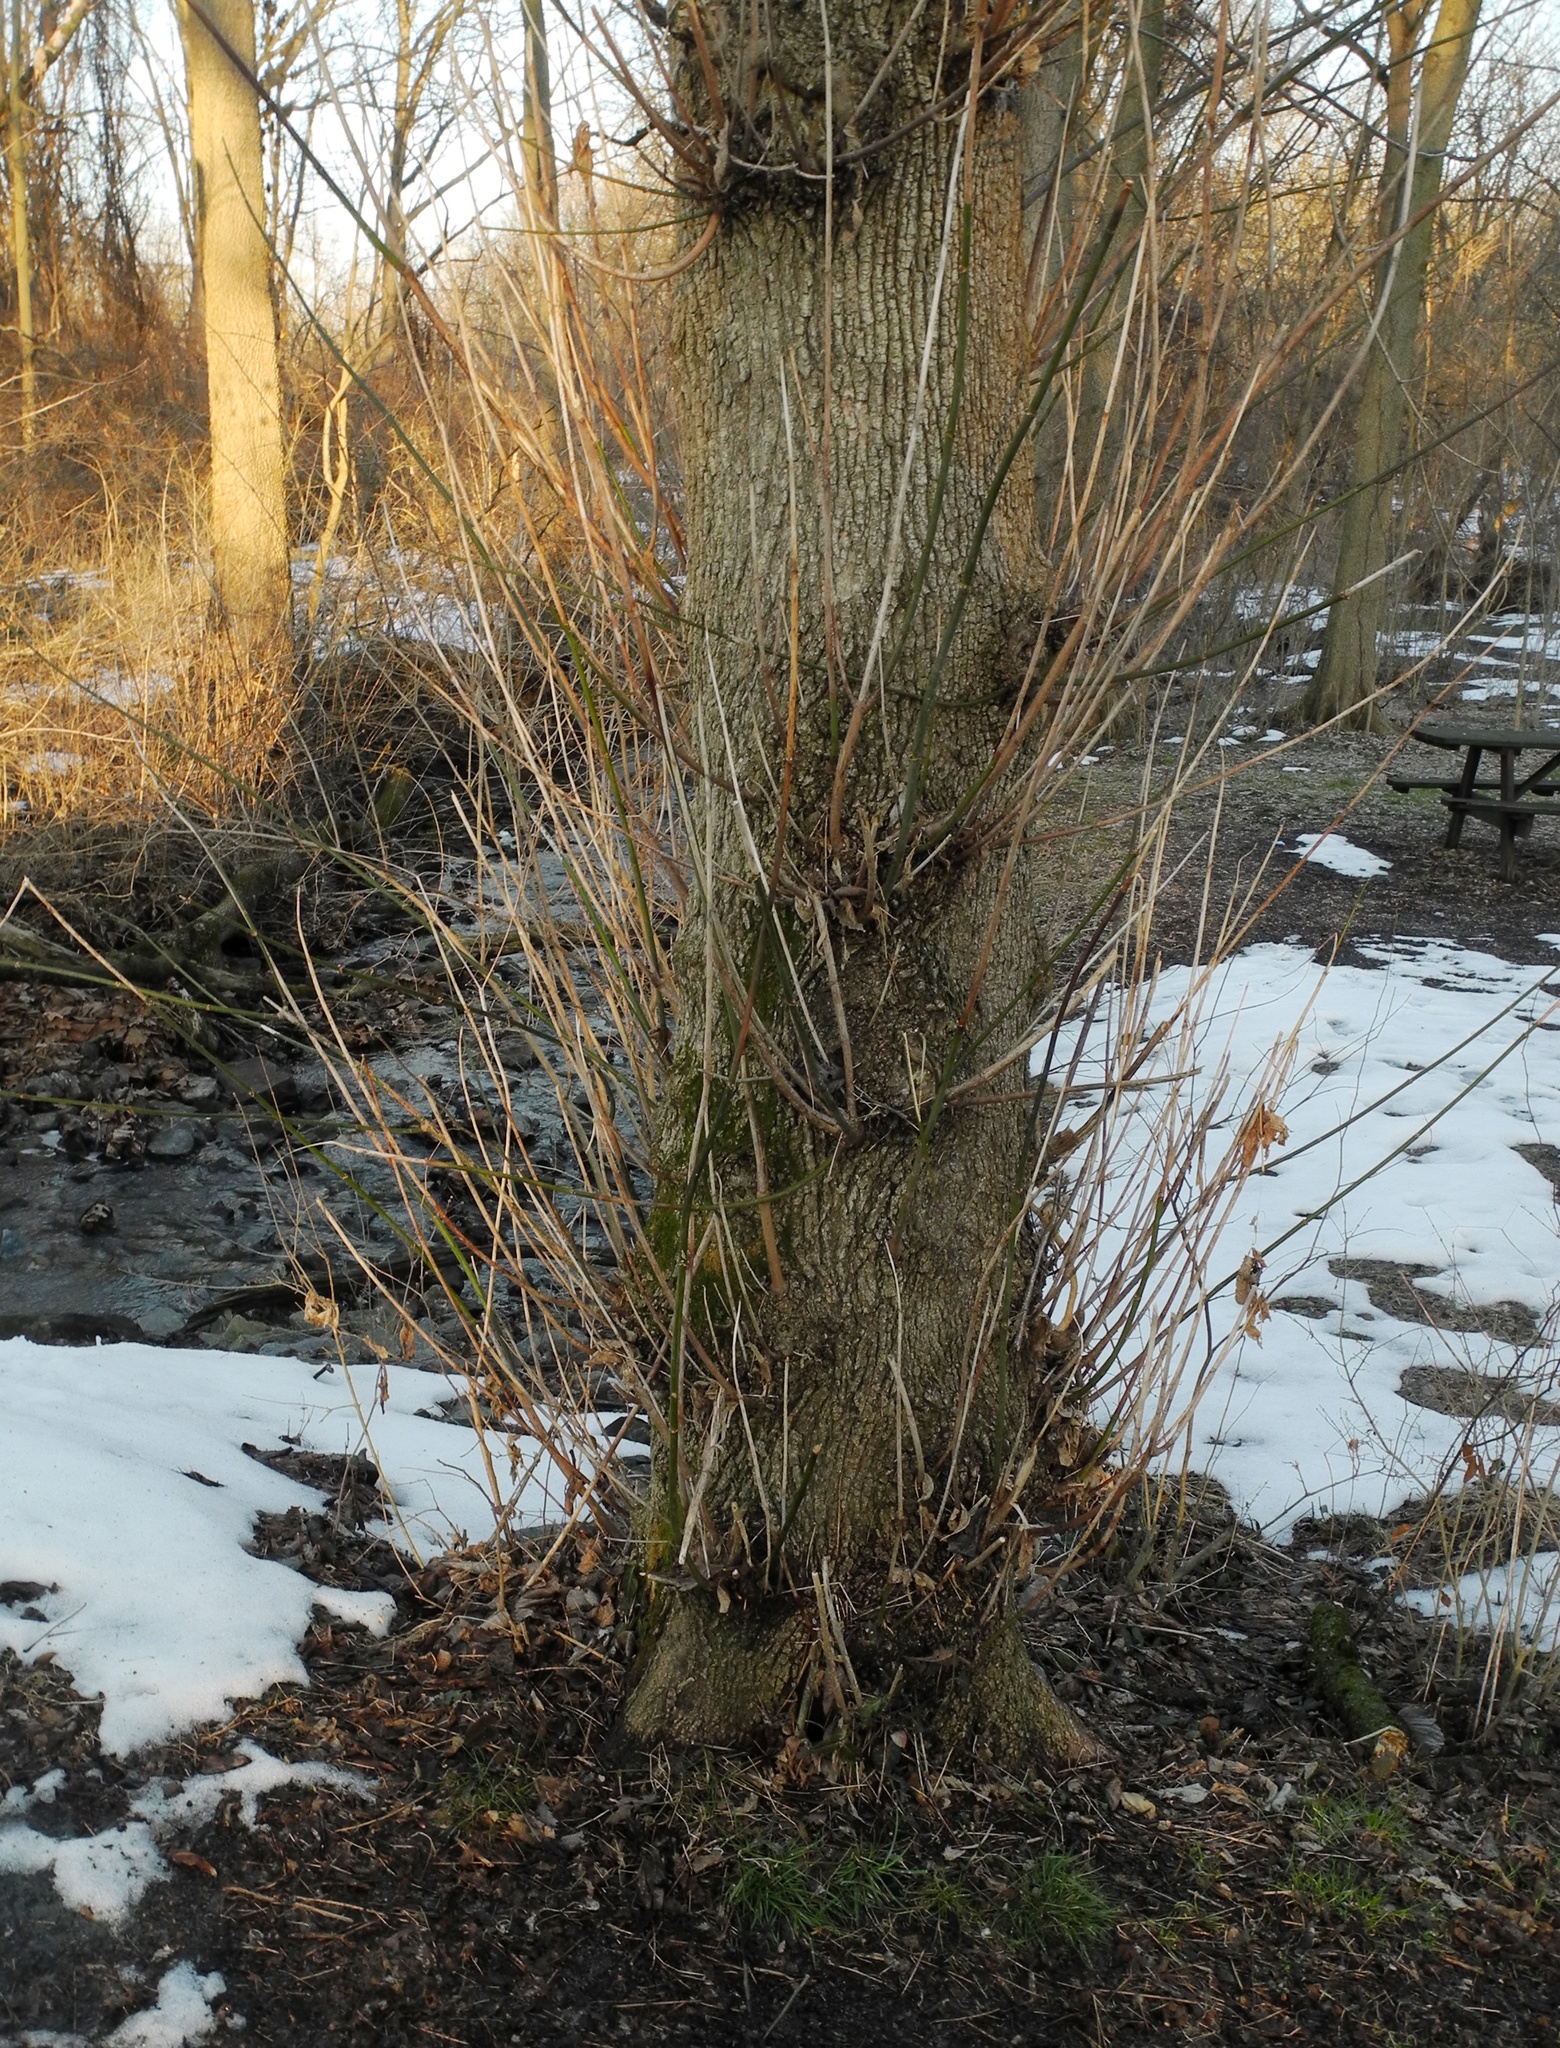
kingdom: Plantae
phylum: Tracheophyta
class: Magnoliopsida
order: Sapindales
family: Sapindaceae
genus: Acer
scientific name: Acer negundo
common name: Ashleaf maple
